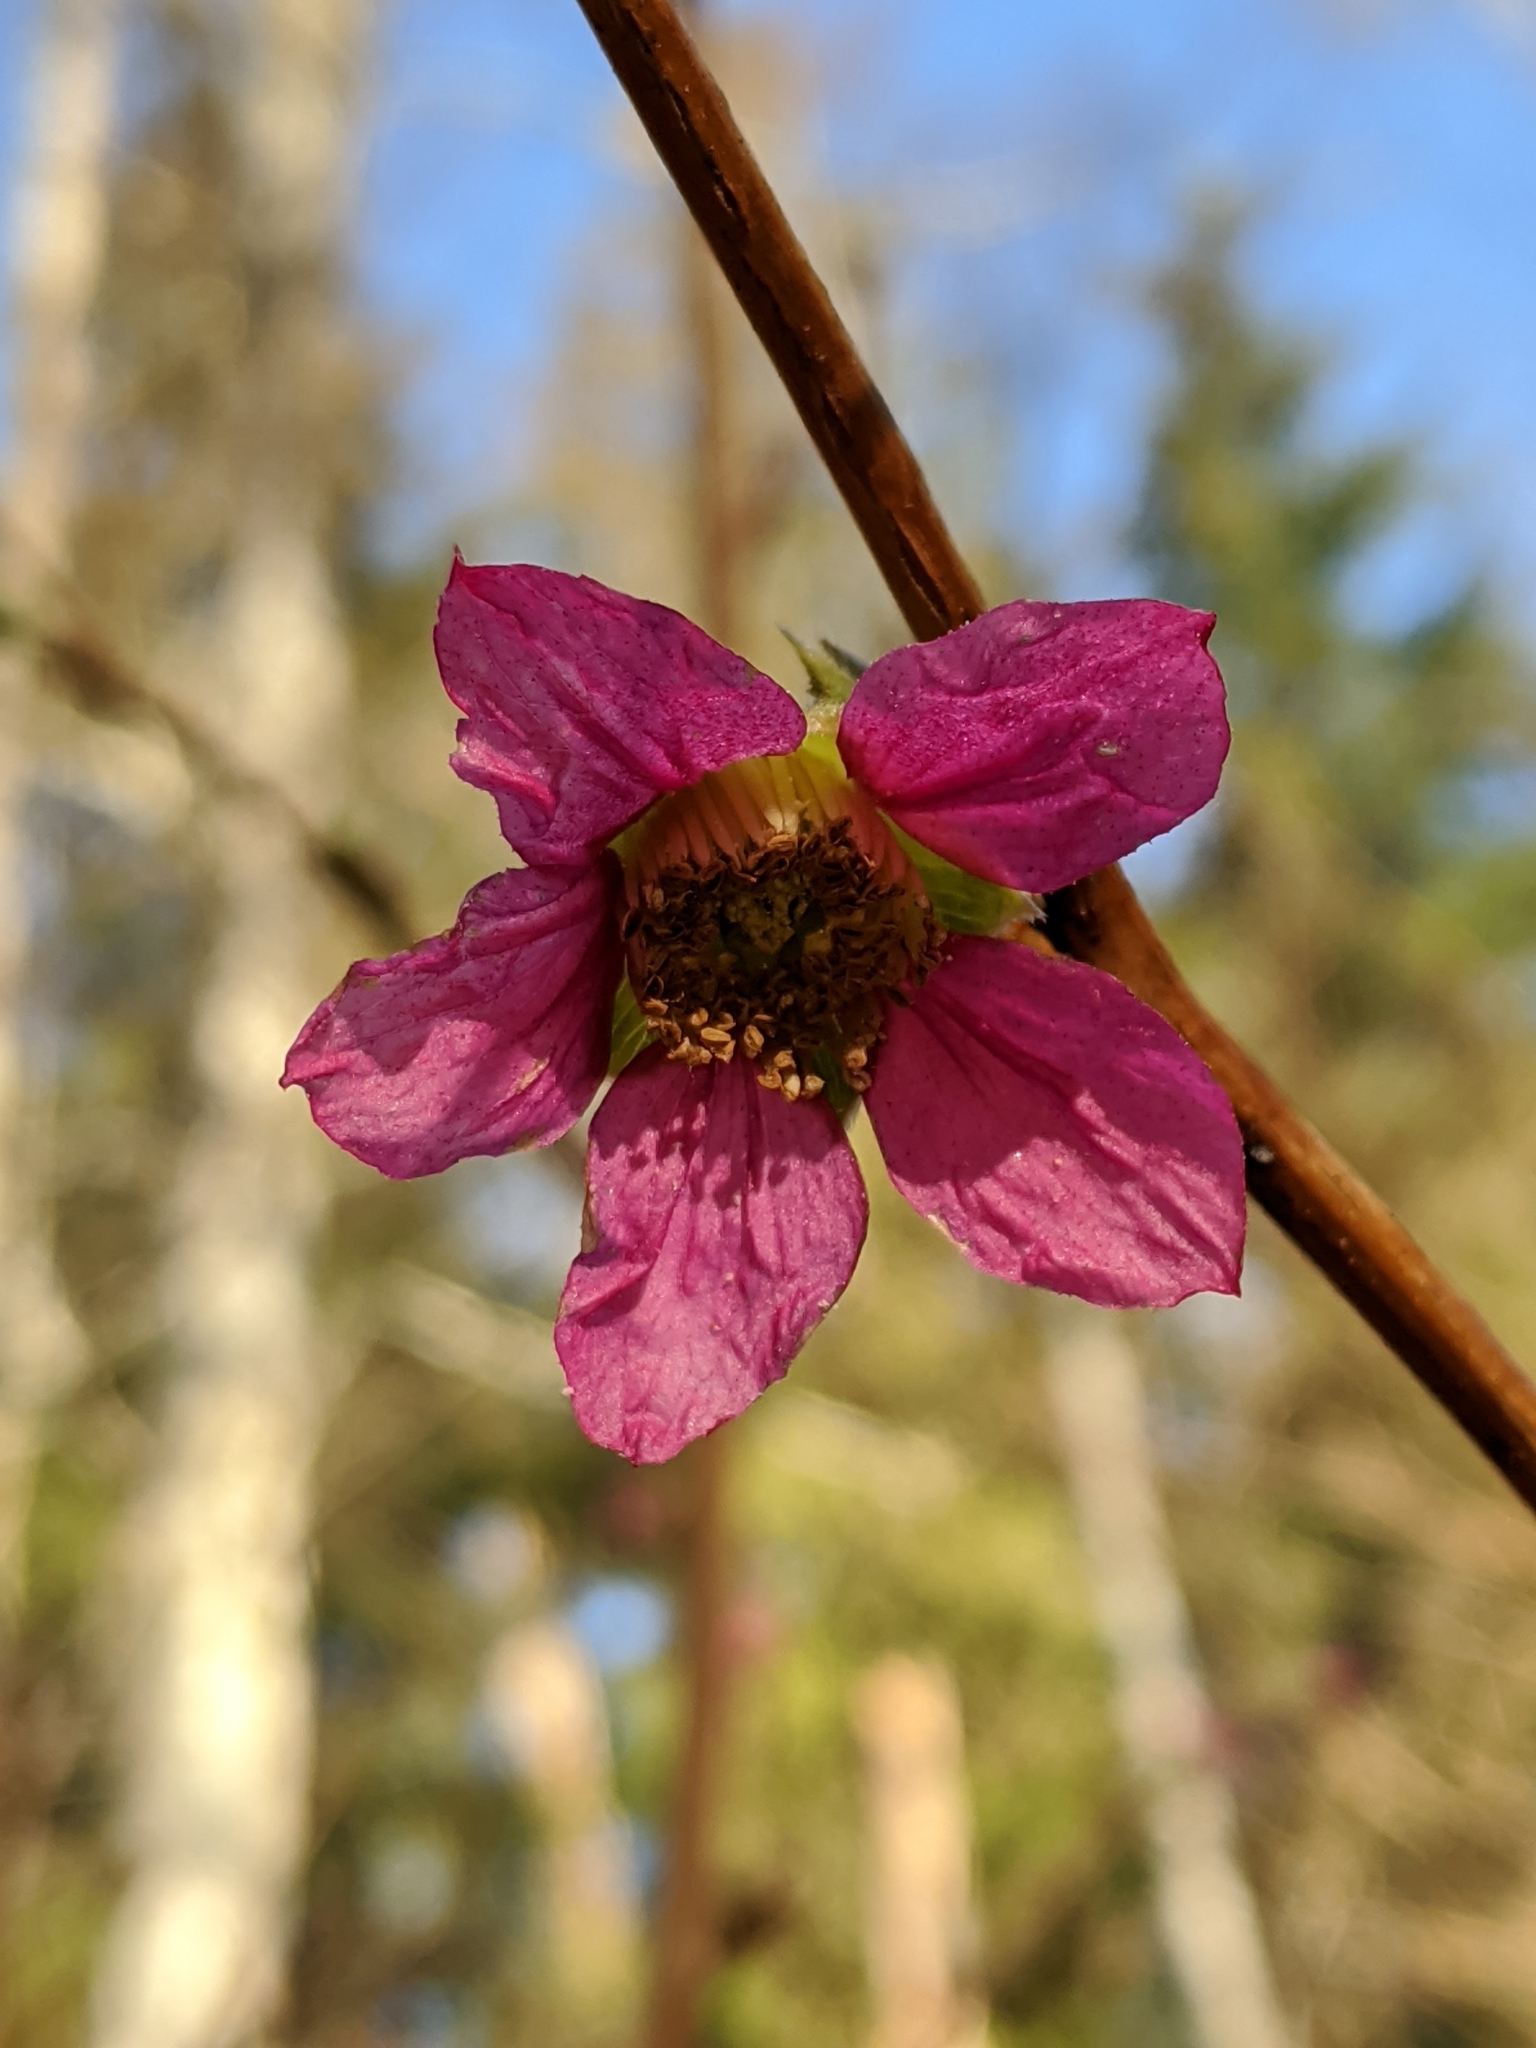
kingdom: Plantae
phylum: Tracheophyta
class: Magnoliopsida
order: Rosales
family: Rosaceae
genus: Rubus
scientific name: Rubus spectabilis
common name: Salmonberry
